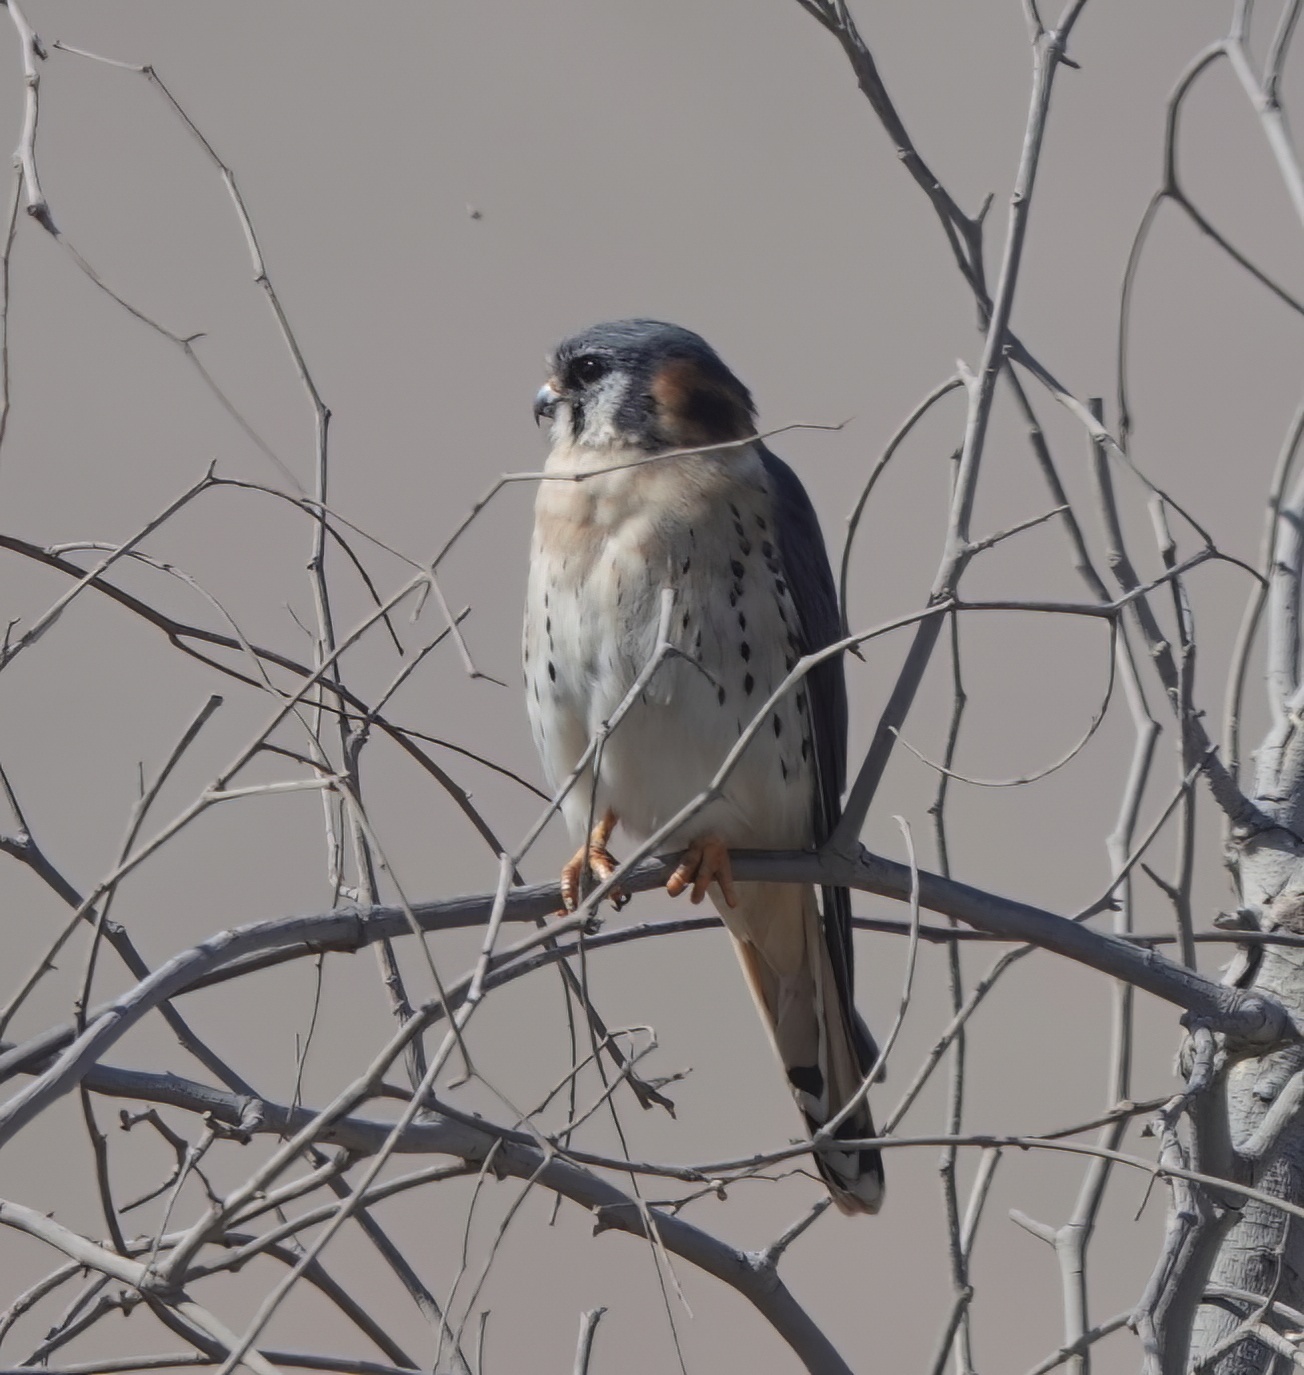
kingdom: Animalia
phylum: Chordata
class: Aves
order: Falconiformes
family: Falconidae
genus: Falco
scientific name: Falco sparverius
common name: American kestrel
